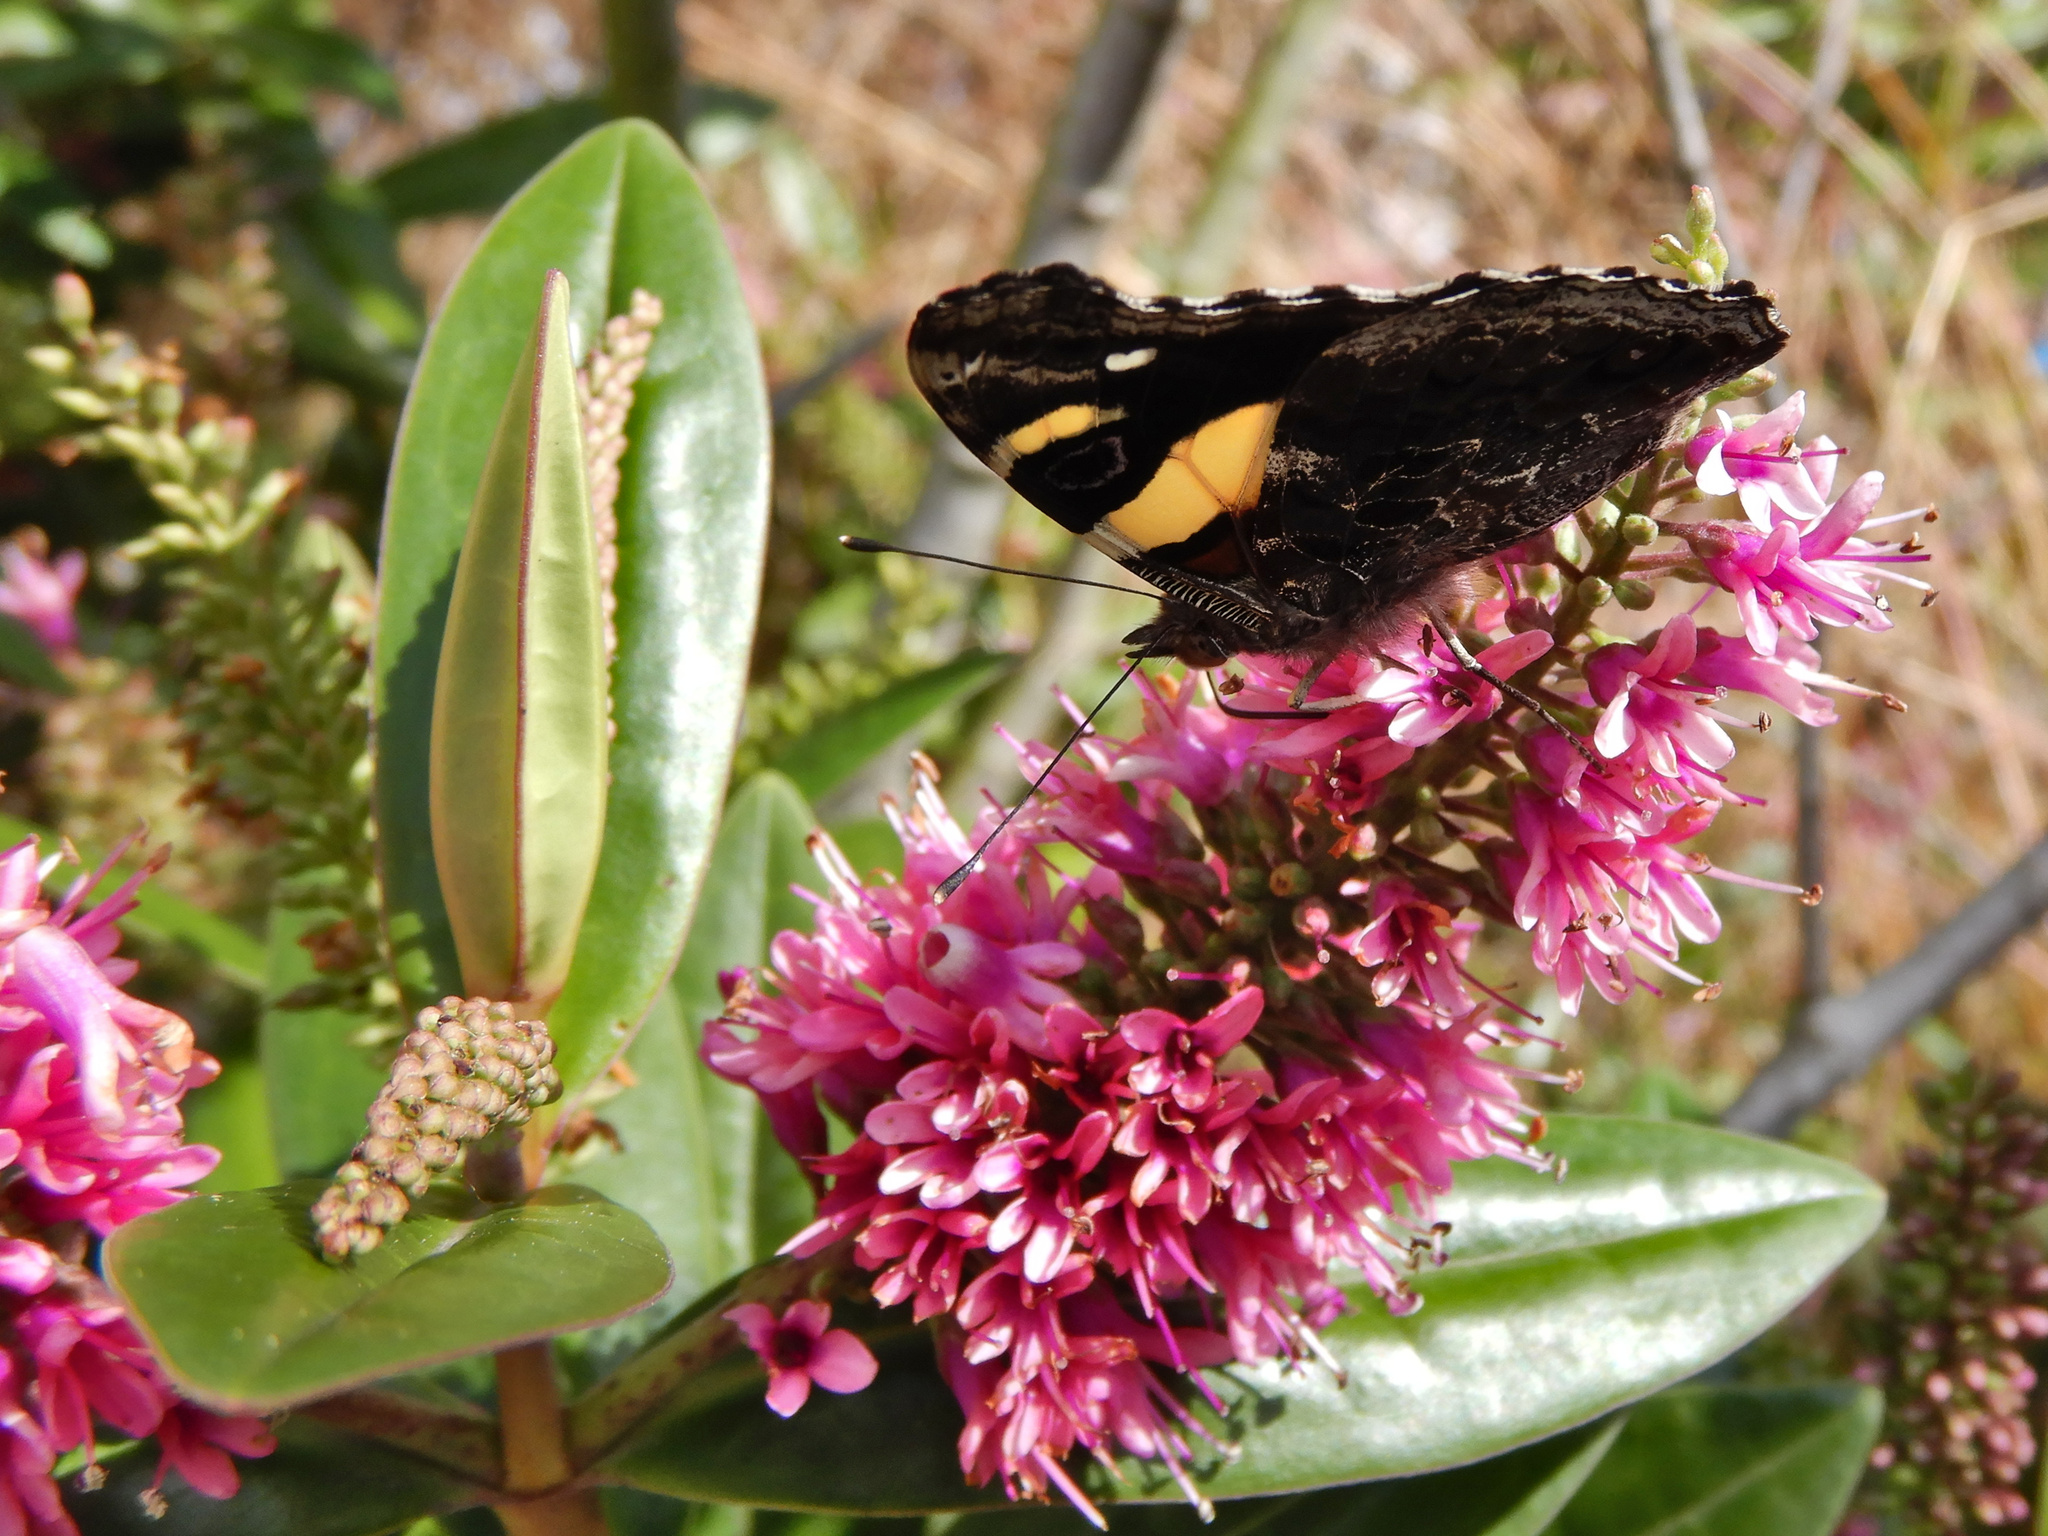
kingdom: Animalia
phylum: Arthropoda
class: Insecta
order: Lepidoptera
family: Nymphalidae
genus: Vanessa
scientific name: Vanessa itea
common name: Yellow admiral
